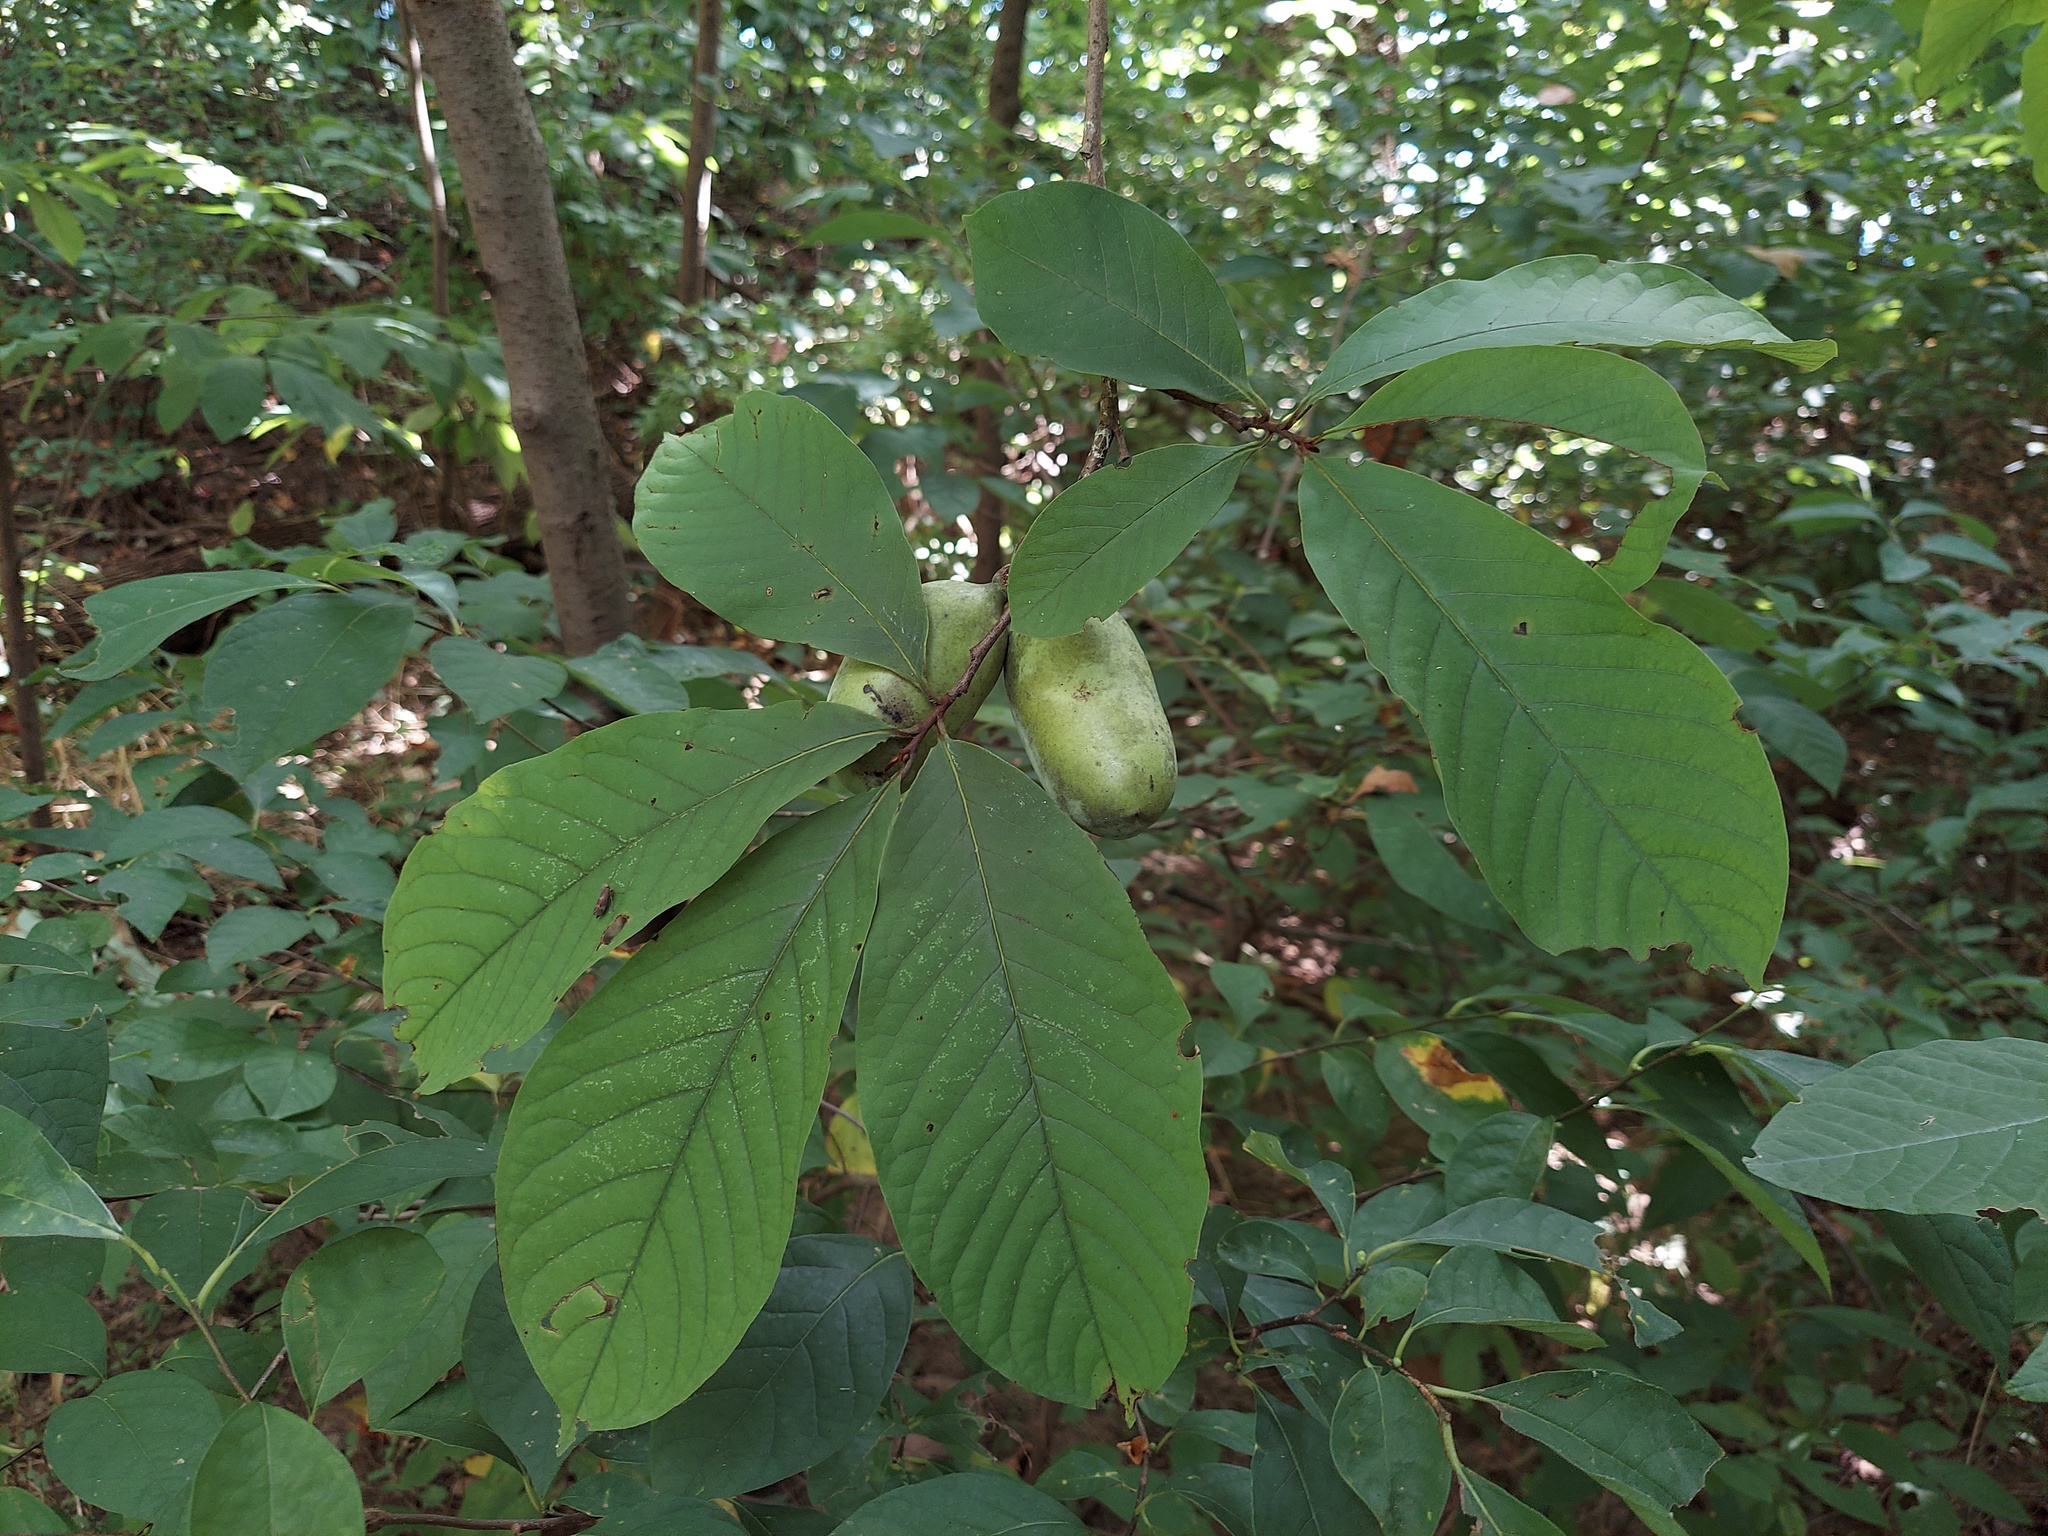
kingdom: Plantae
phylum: Tracheophyta
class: Magnoliopsida
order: Magnoliales
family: Annonaceae
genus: Asimina
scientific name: Asimina triloba
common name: Dog-banana
